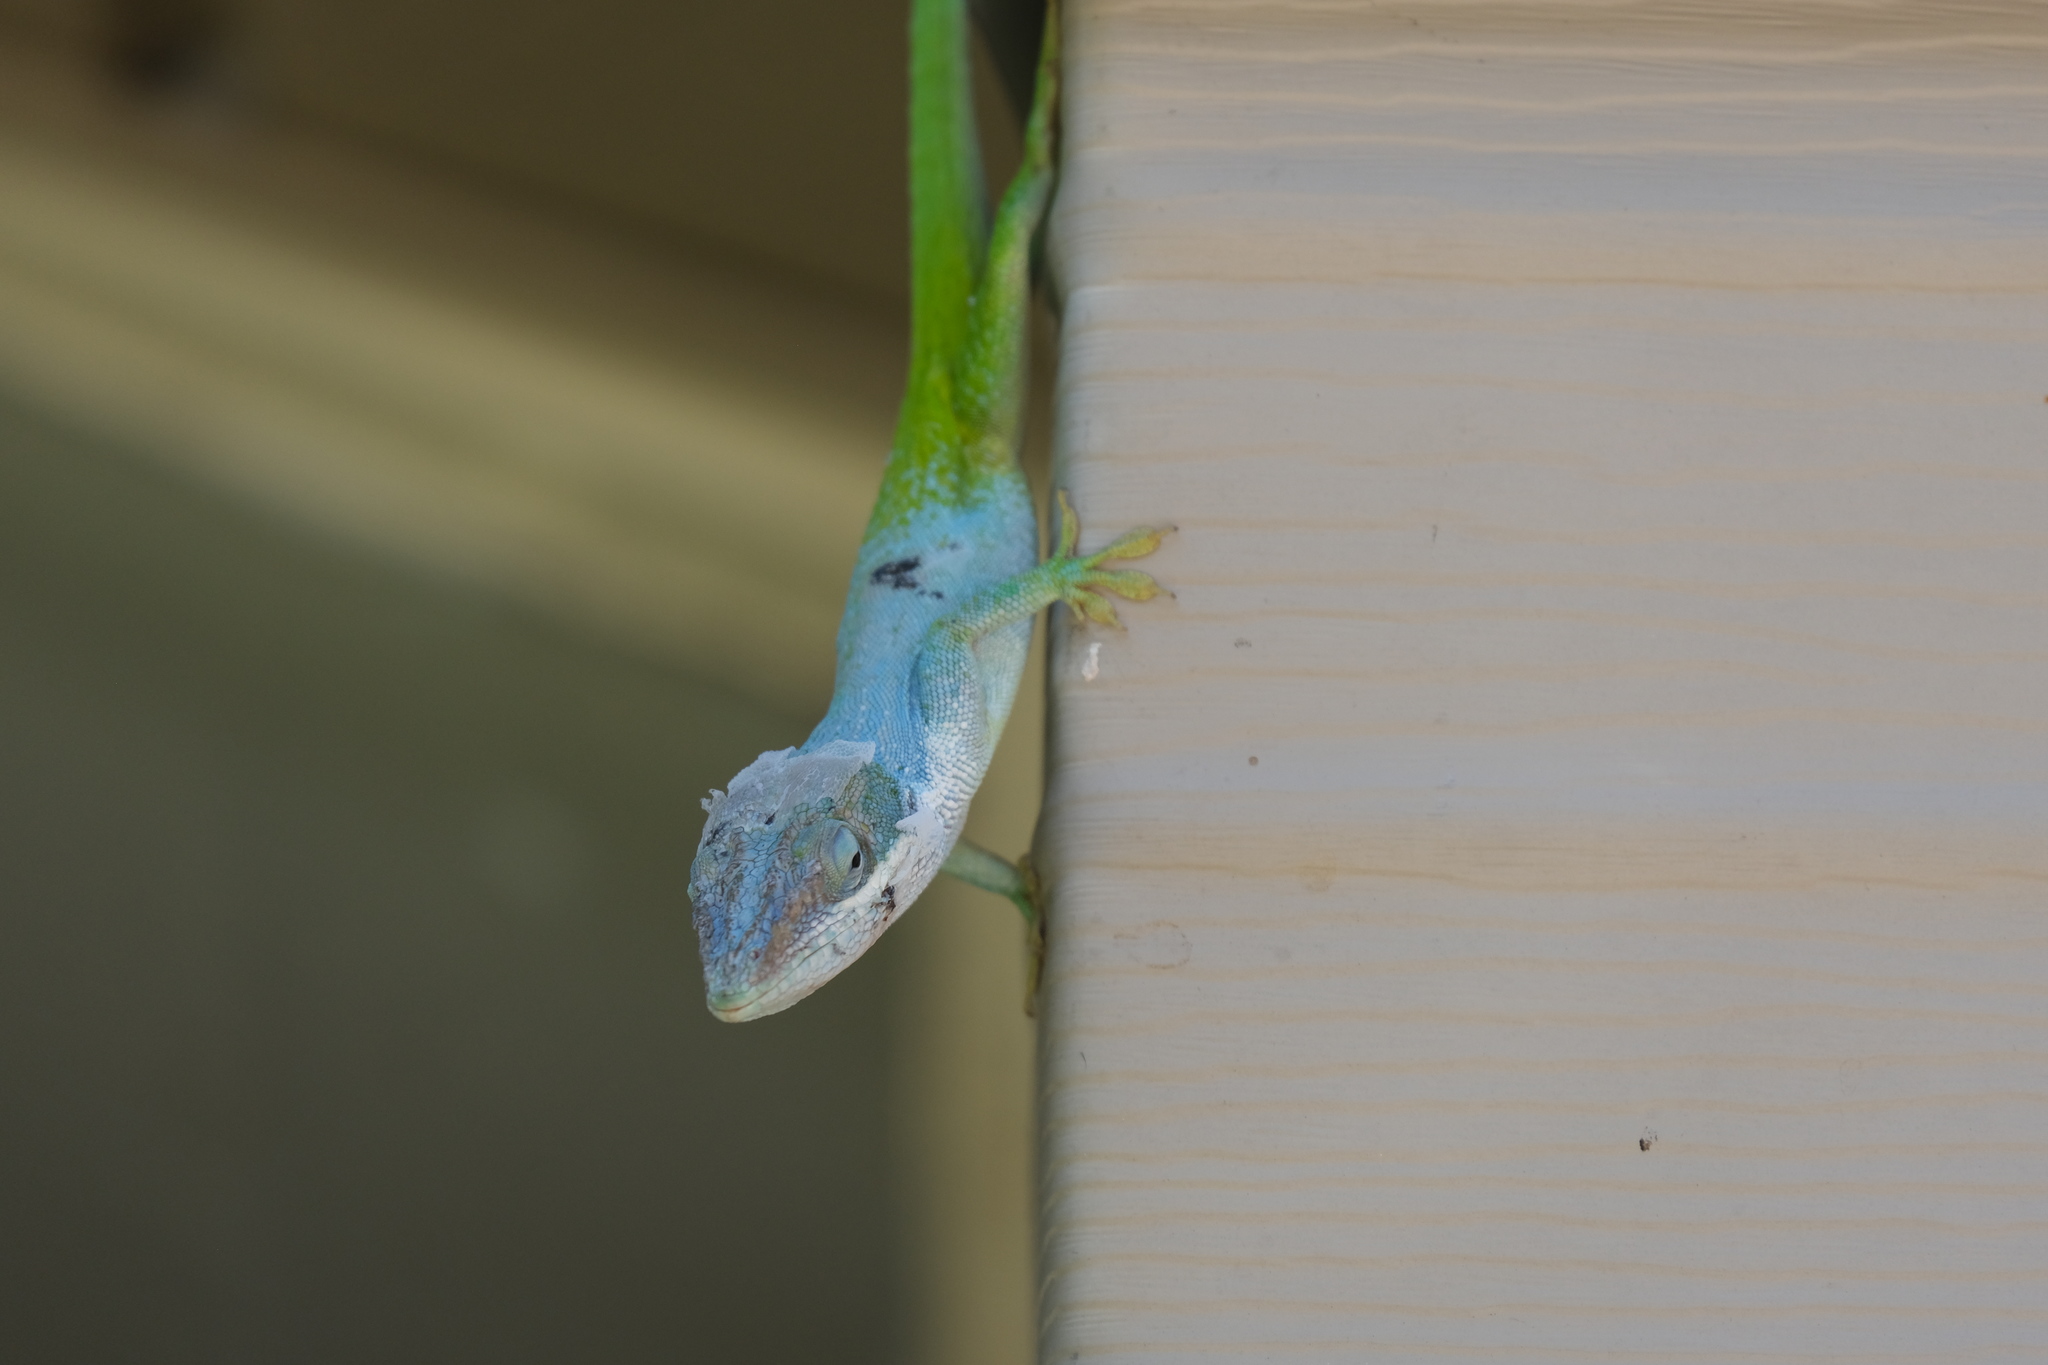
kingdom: Animalia
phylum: Chordata
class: Squamata
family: Dactyloidae
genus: Anolis
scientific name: Anolis allisoni
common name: Allison's anole
